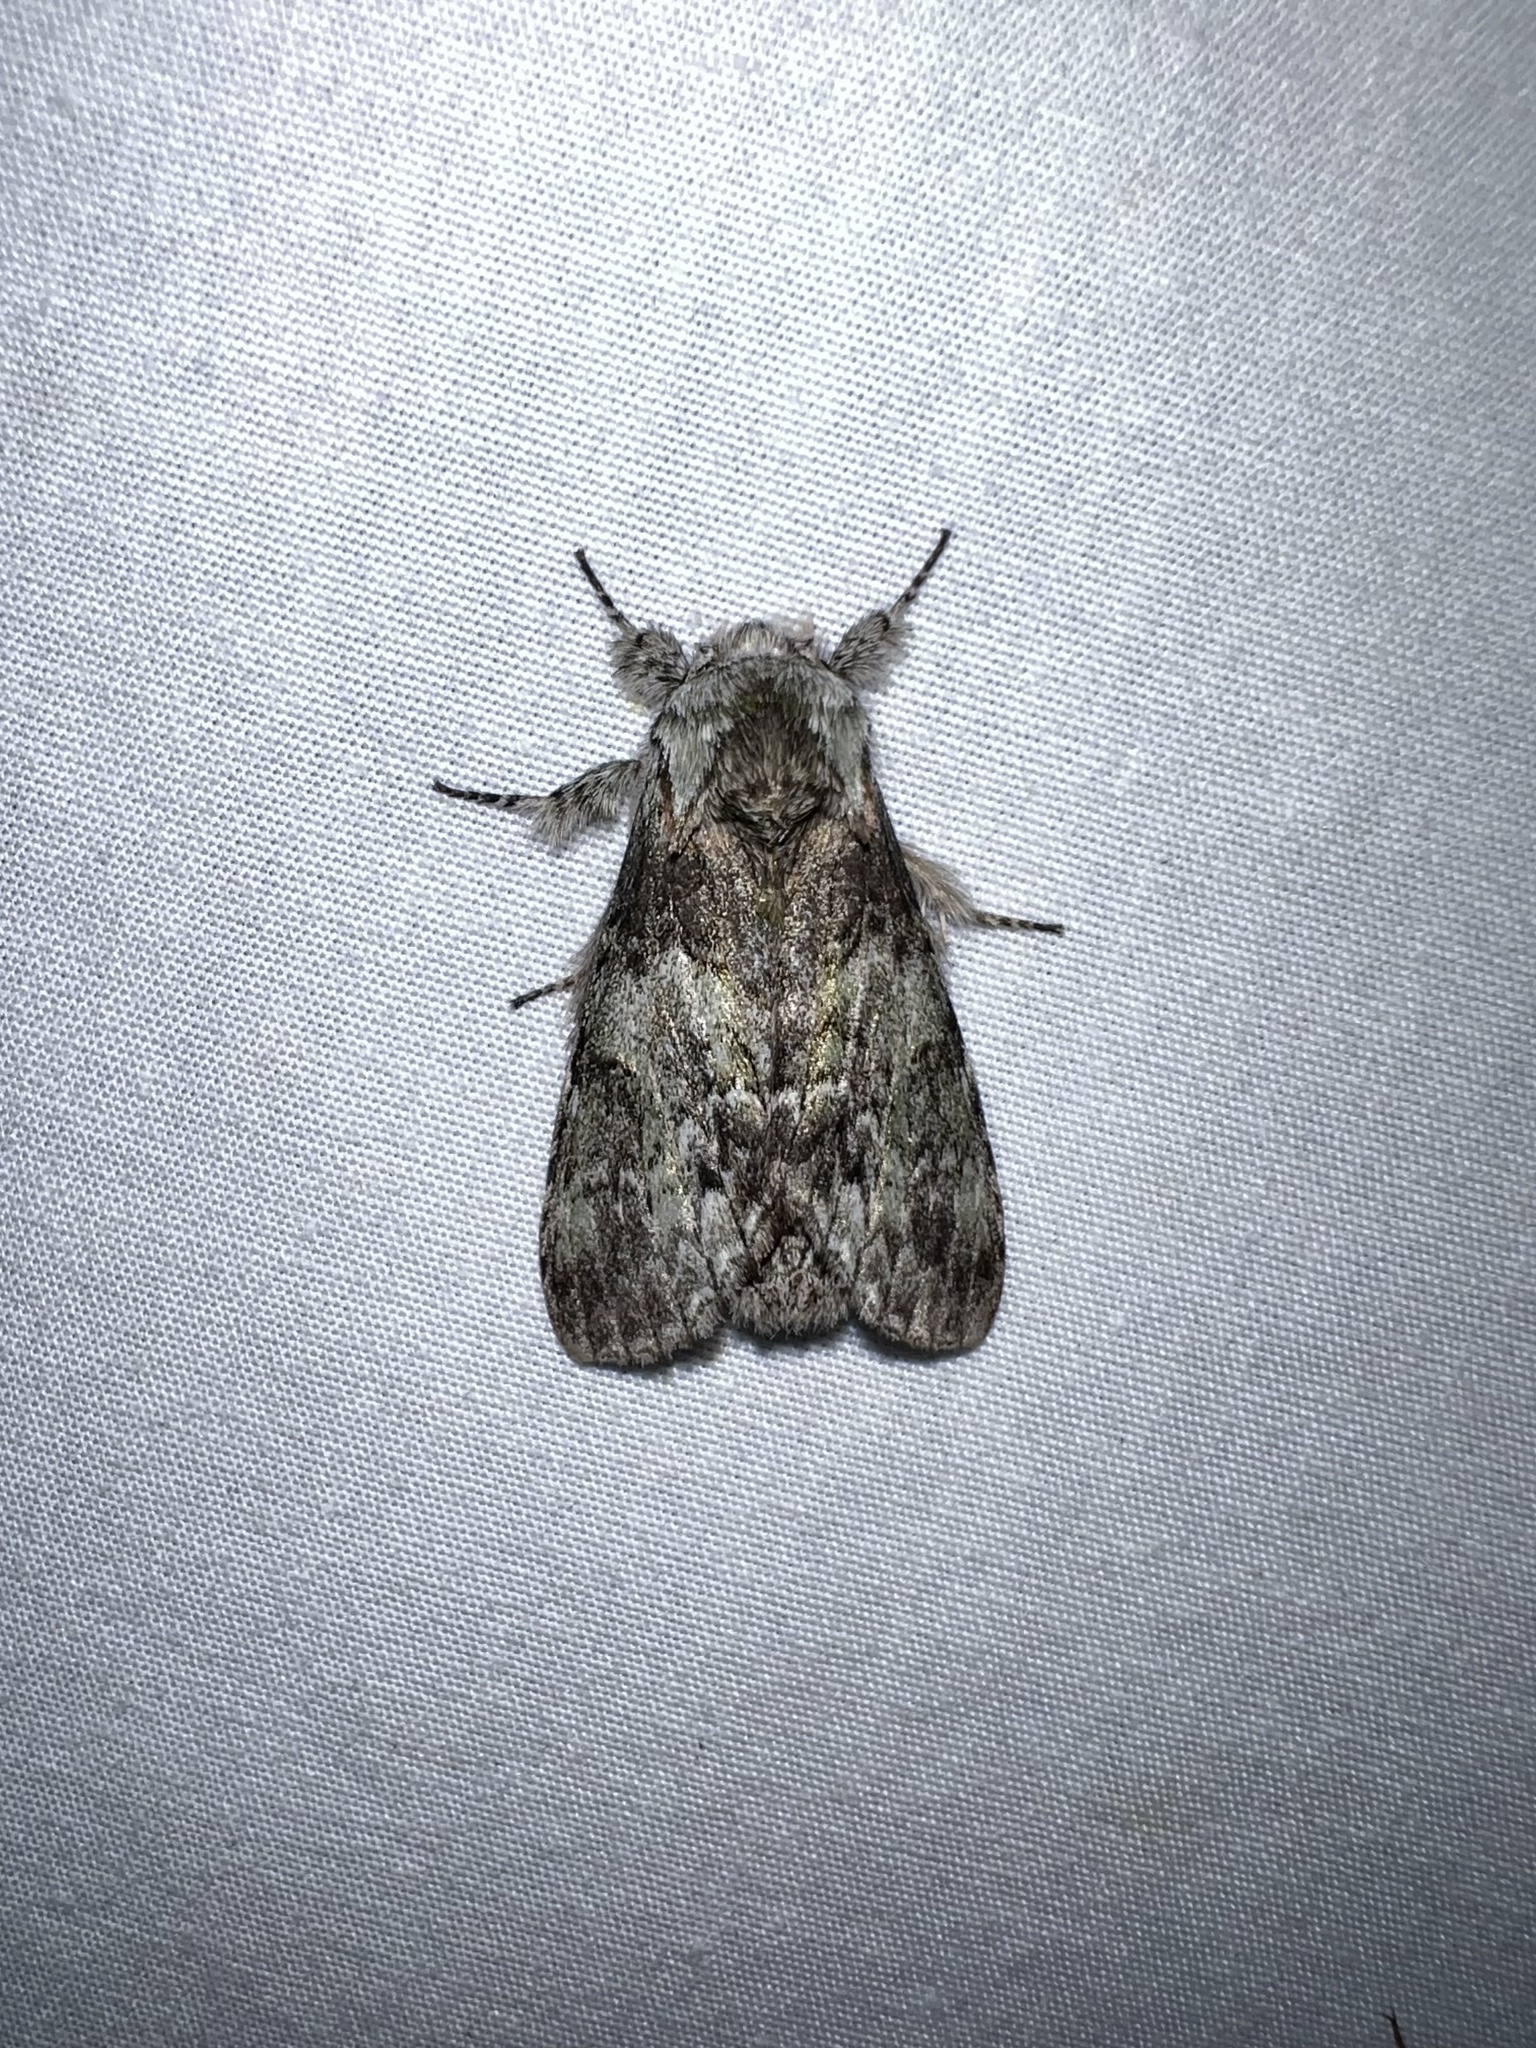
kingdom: Animalia
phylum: Arthropoda
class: Insecta
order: Lepidoptera
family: Notodontidae
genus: Macrurocampa
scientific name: Macrurocampa marthesia
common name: Mottled prominent
